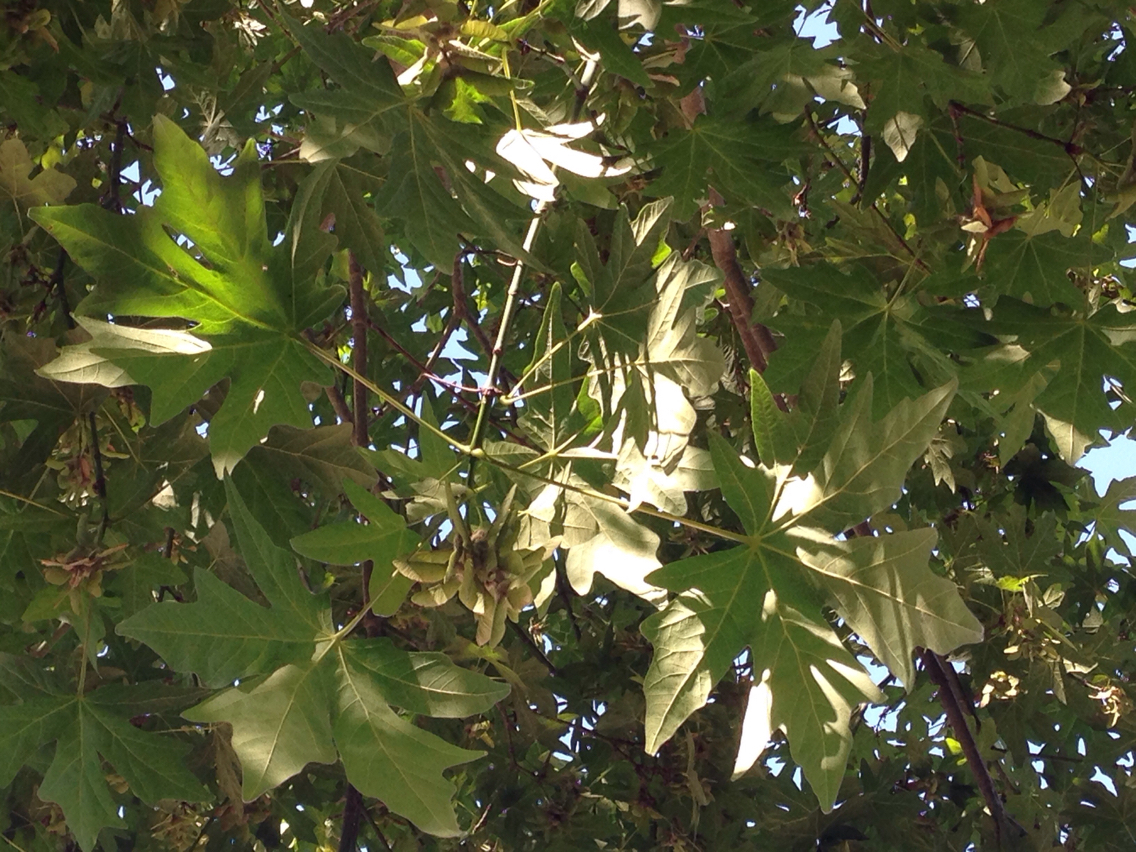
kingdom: Plantae
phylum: Tracheophyta
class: Magnoliopsida
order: Sapindales
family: Sapindaceae
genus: Acer
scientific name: Acer macrophyllum
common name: Oregon maple
